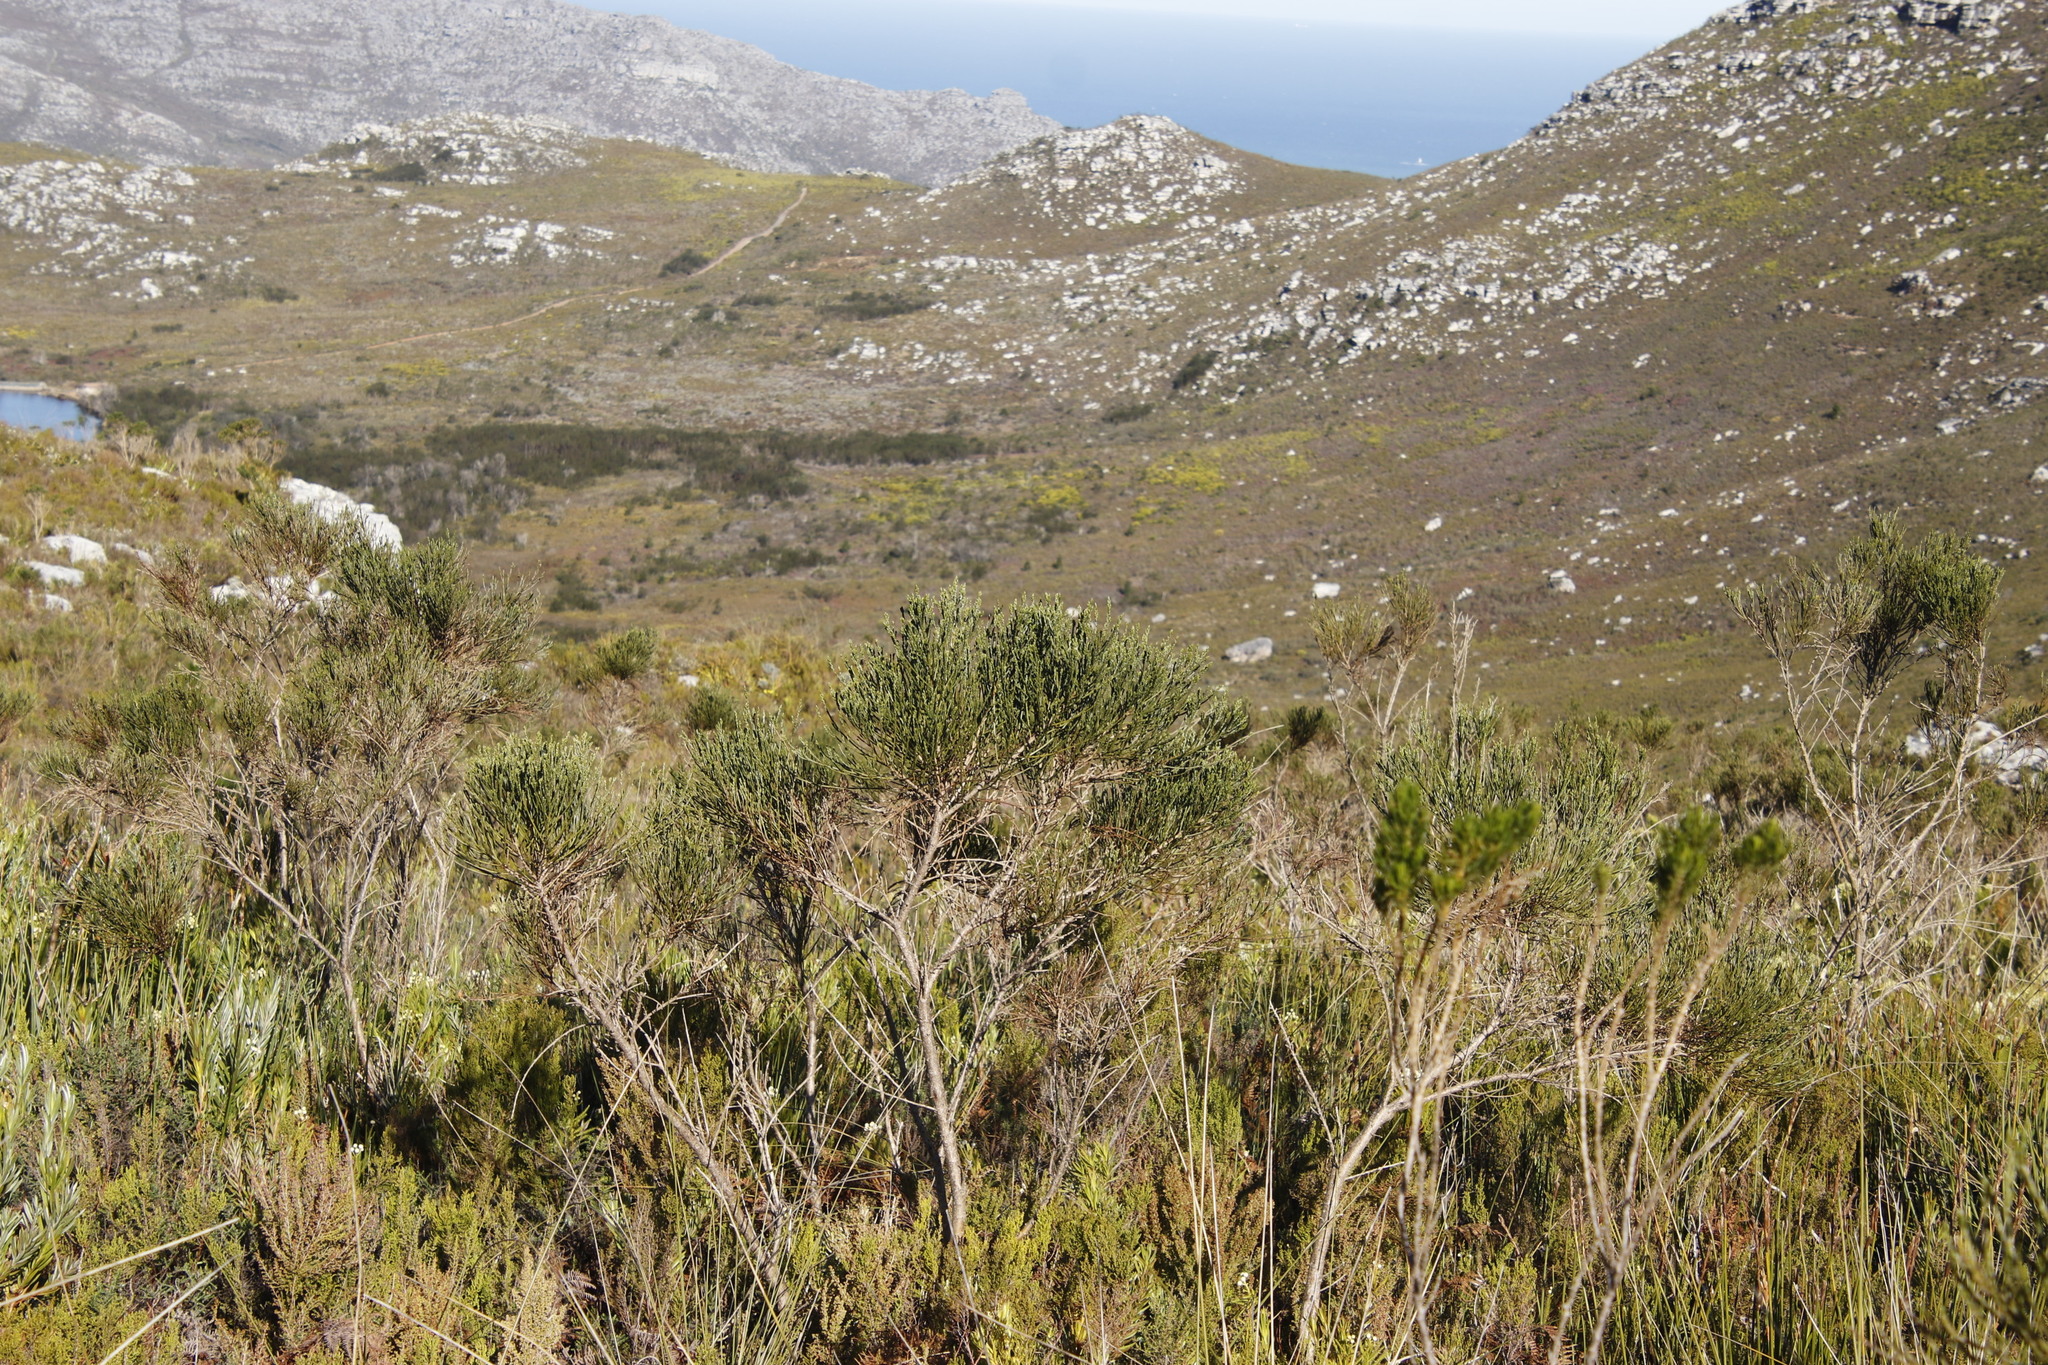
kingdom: Plantae
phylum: Tracheophyta
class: Magnoliopsida
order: Fabales
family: Fabaceae
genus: Psoralea
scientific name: Psoralea congesta
